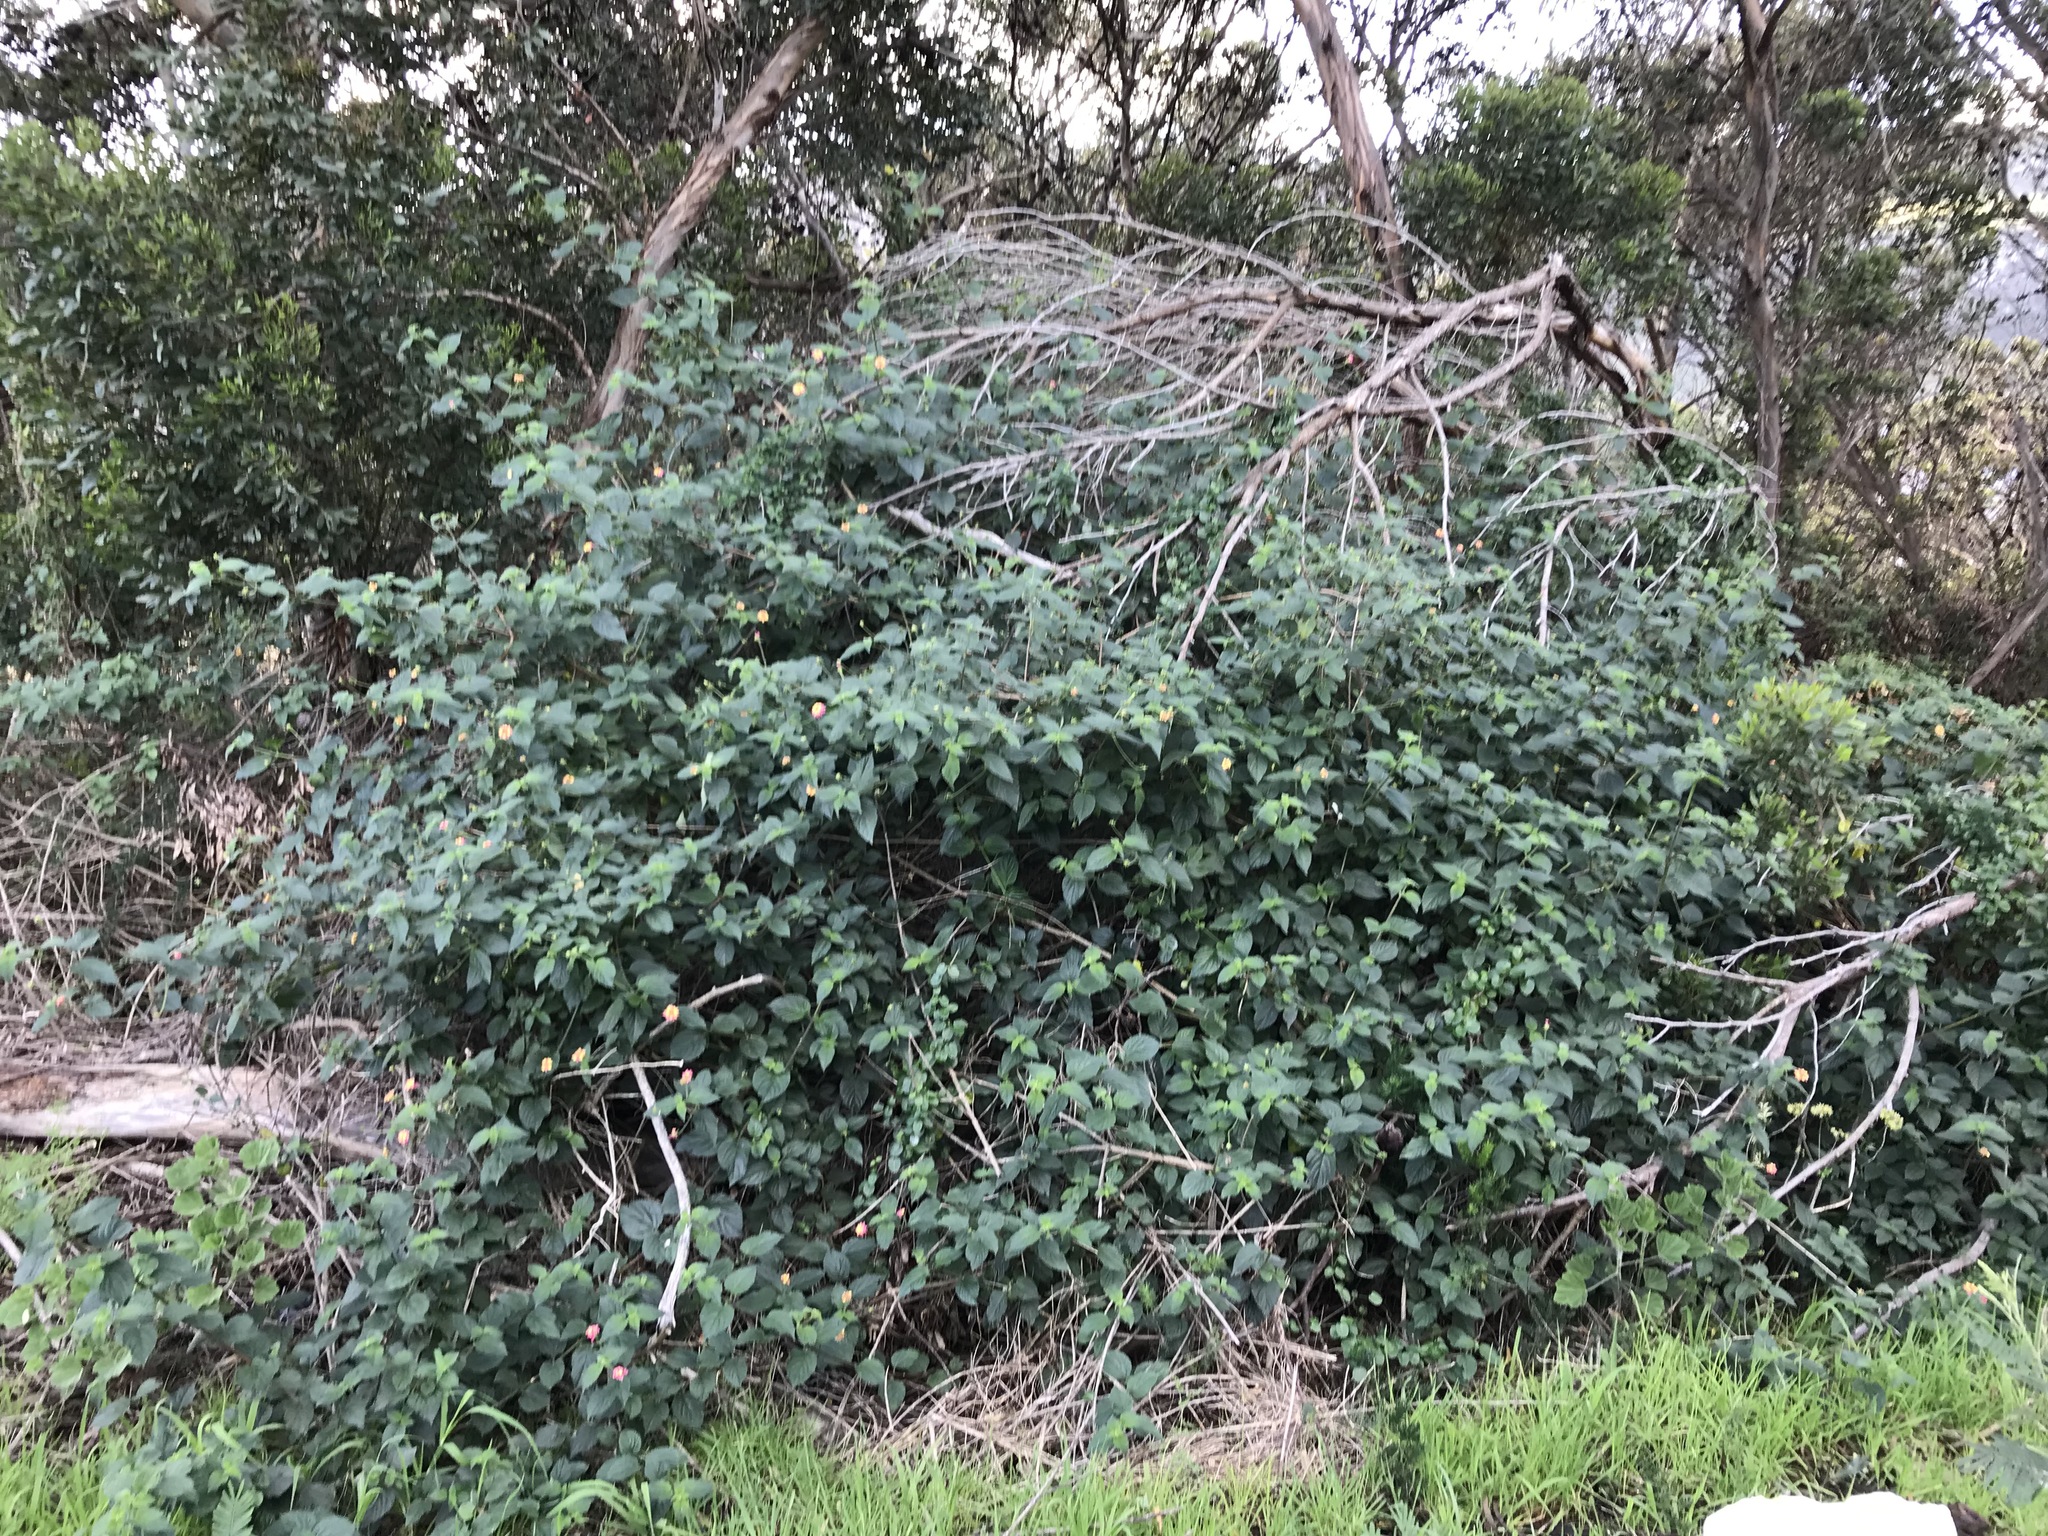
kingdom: Plantae
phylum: Tracheophyta
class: Magnoliopsida
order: Lamiales
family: Verbenaceae
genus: Lantana
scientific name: Lantana camara
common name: Lantana
